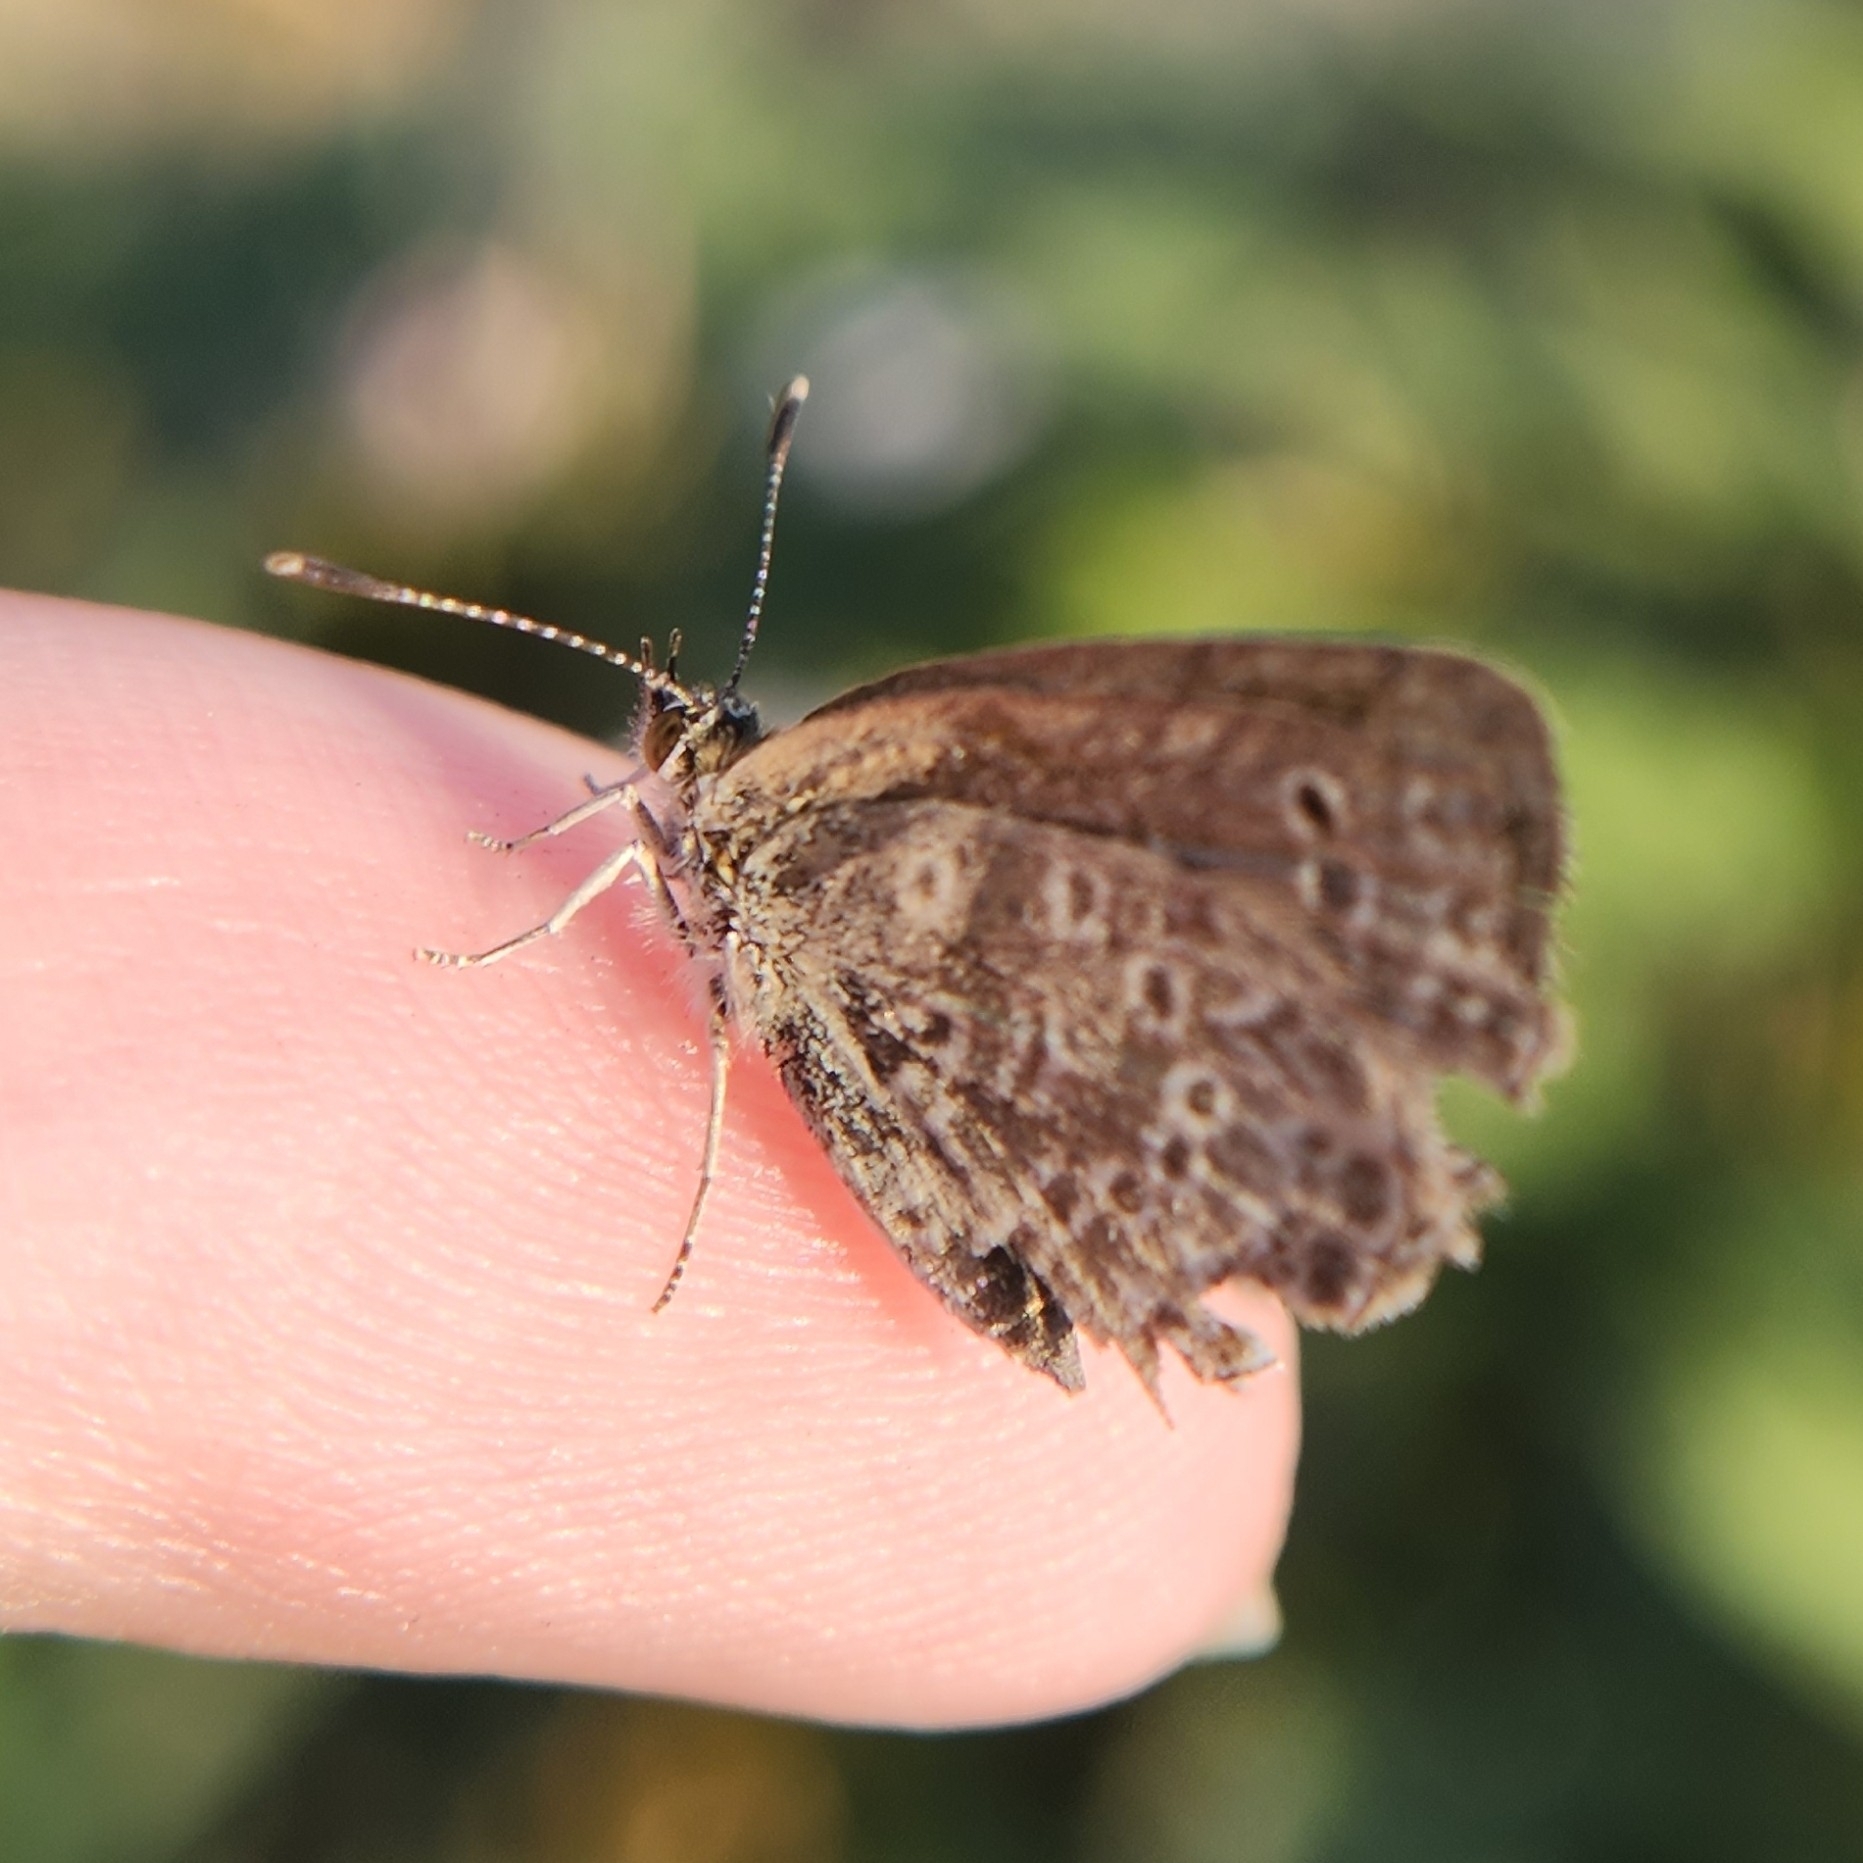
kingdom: Animalia
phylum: Arthropoda
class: Insecta
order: Lepidoptera
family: Lycaenidae
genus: Pseudozizeeria
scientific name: Pseudozizeeria maha
